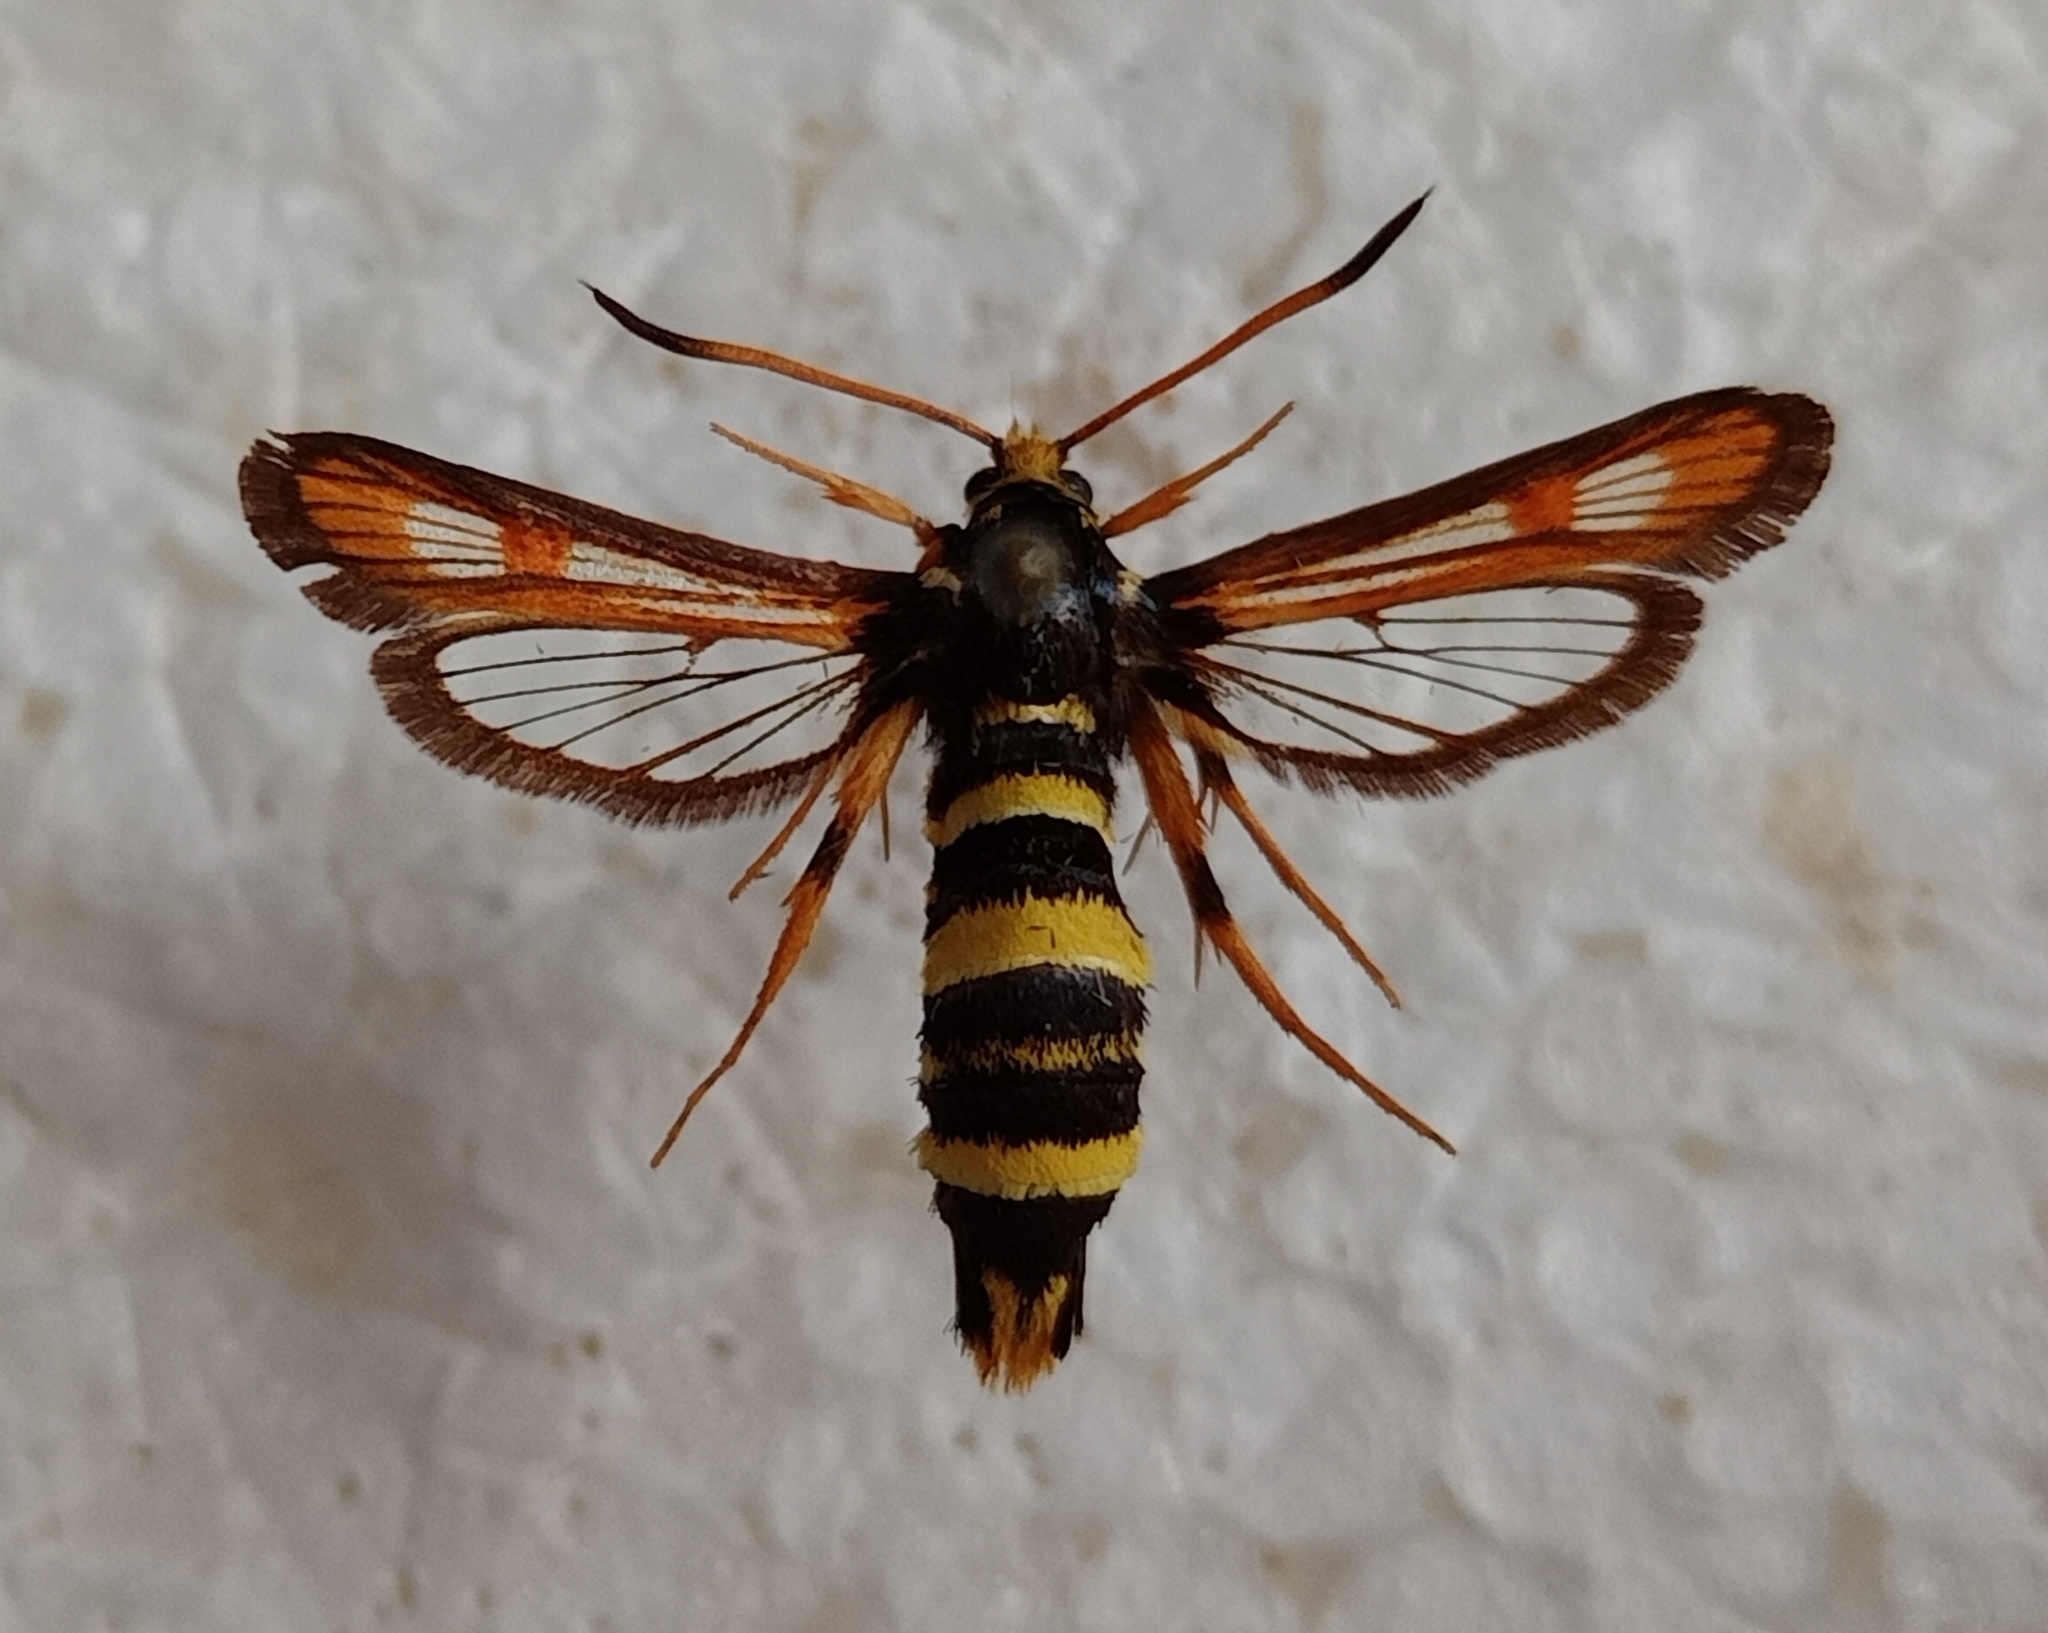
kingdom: Animalia
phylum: Arthropoda
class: Insecta
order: Lepidoptera
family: Sesiidae
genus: Bembecia
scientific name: Bembecia tshimgana
